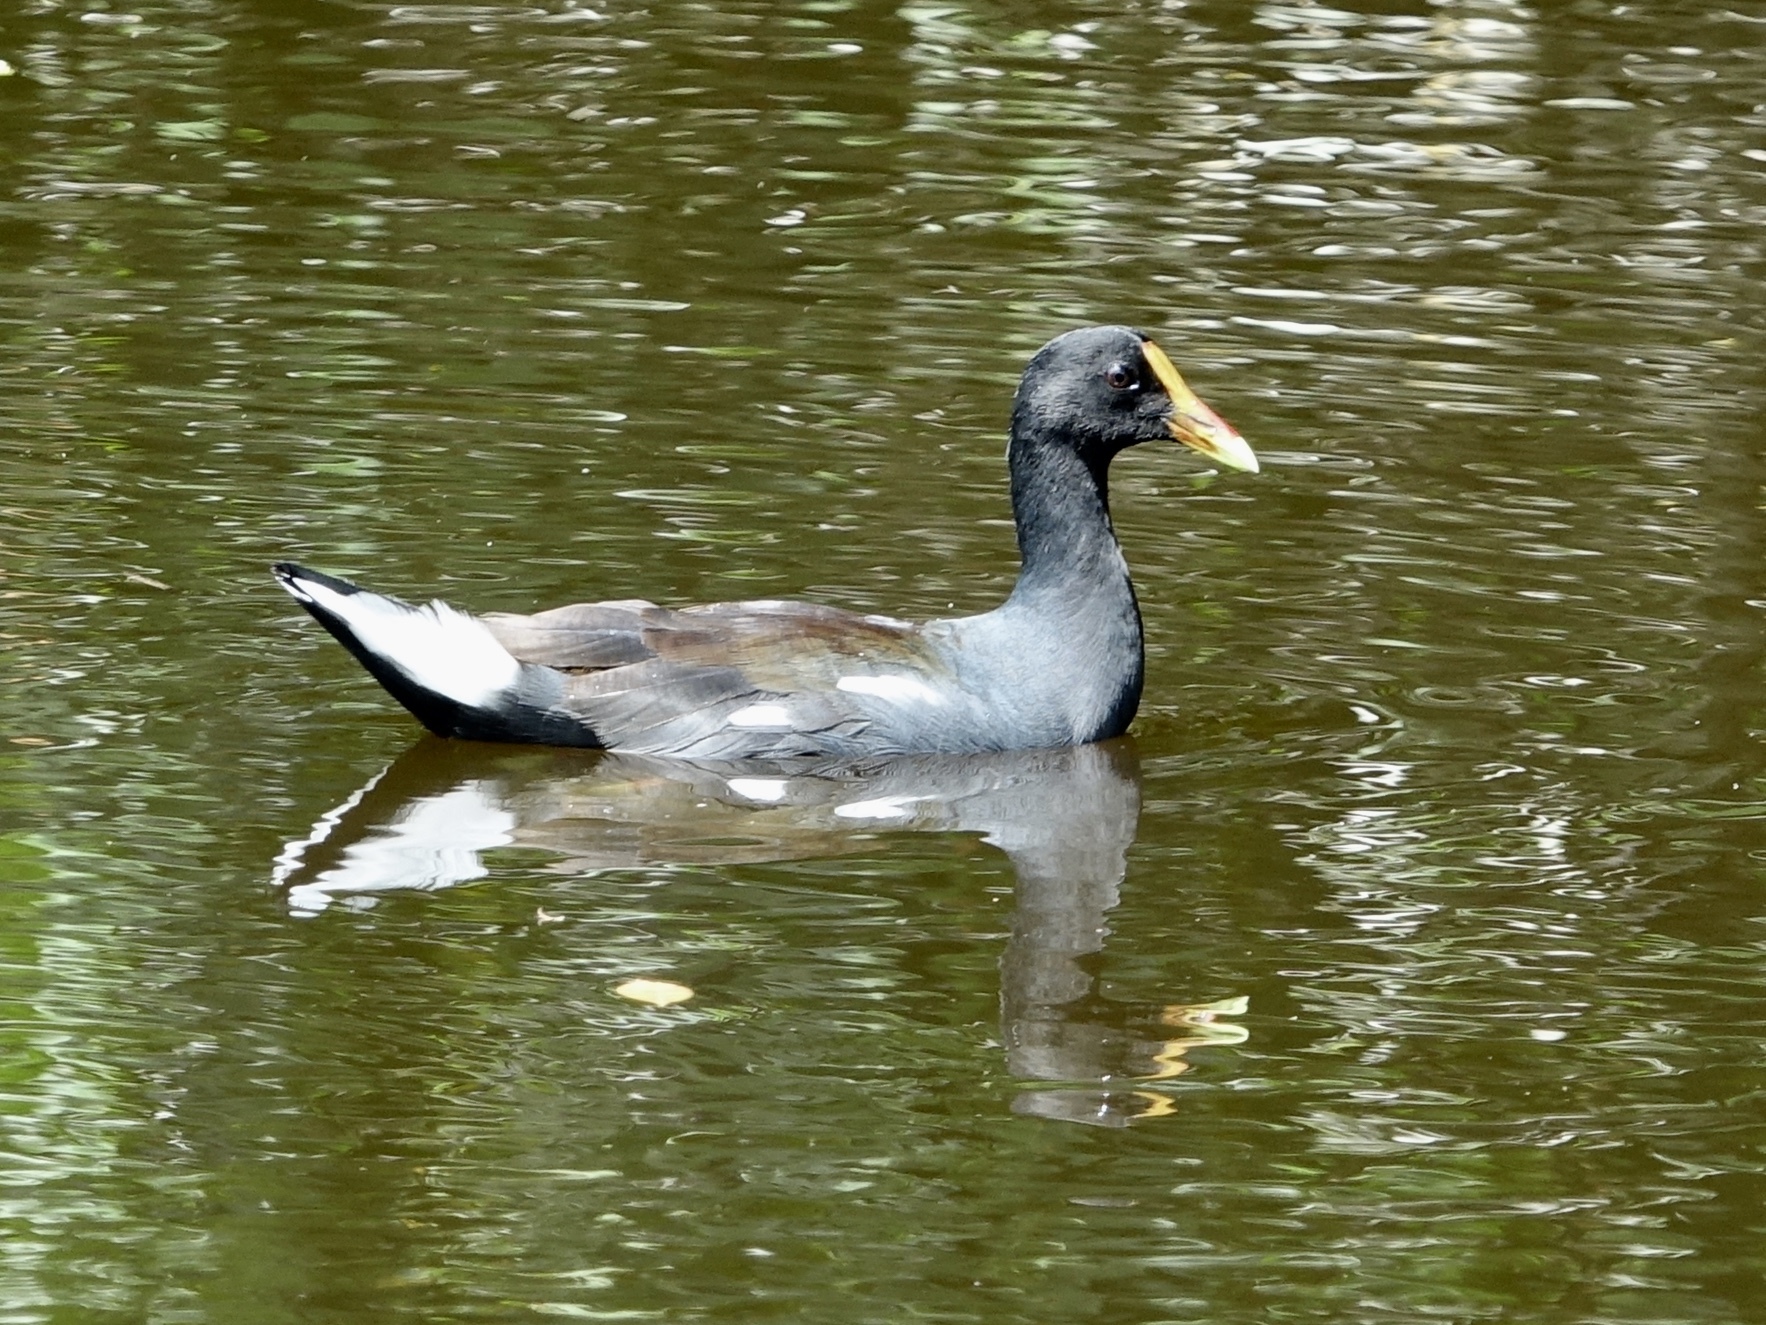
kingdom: Animalia
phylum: Chordata
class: Aves
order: Gruiformes
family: Rallidae
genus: Gallinula
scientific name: Gallinula chloropus
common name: Common moorhen
